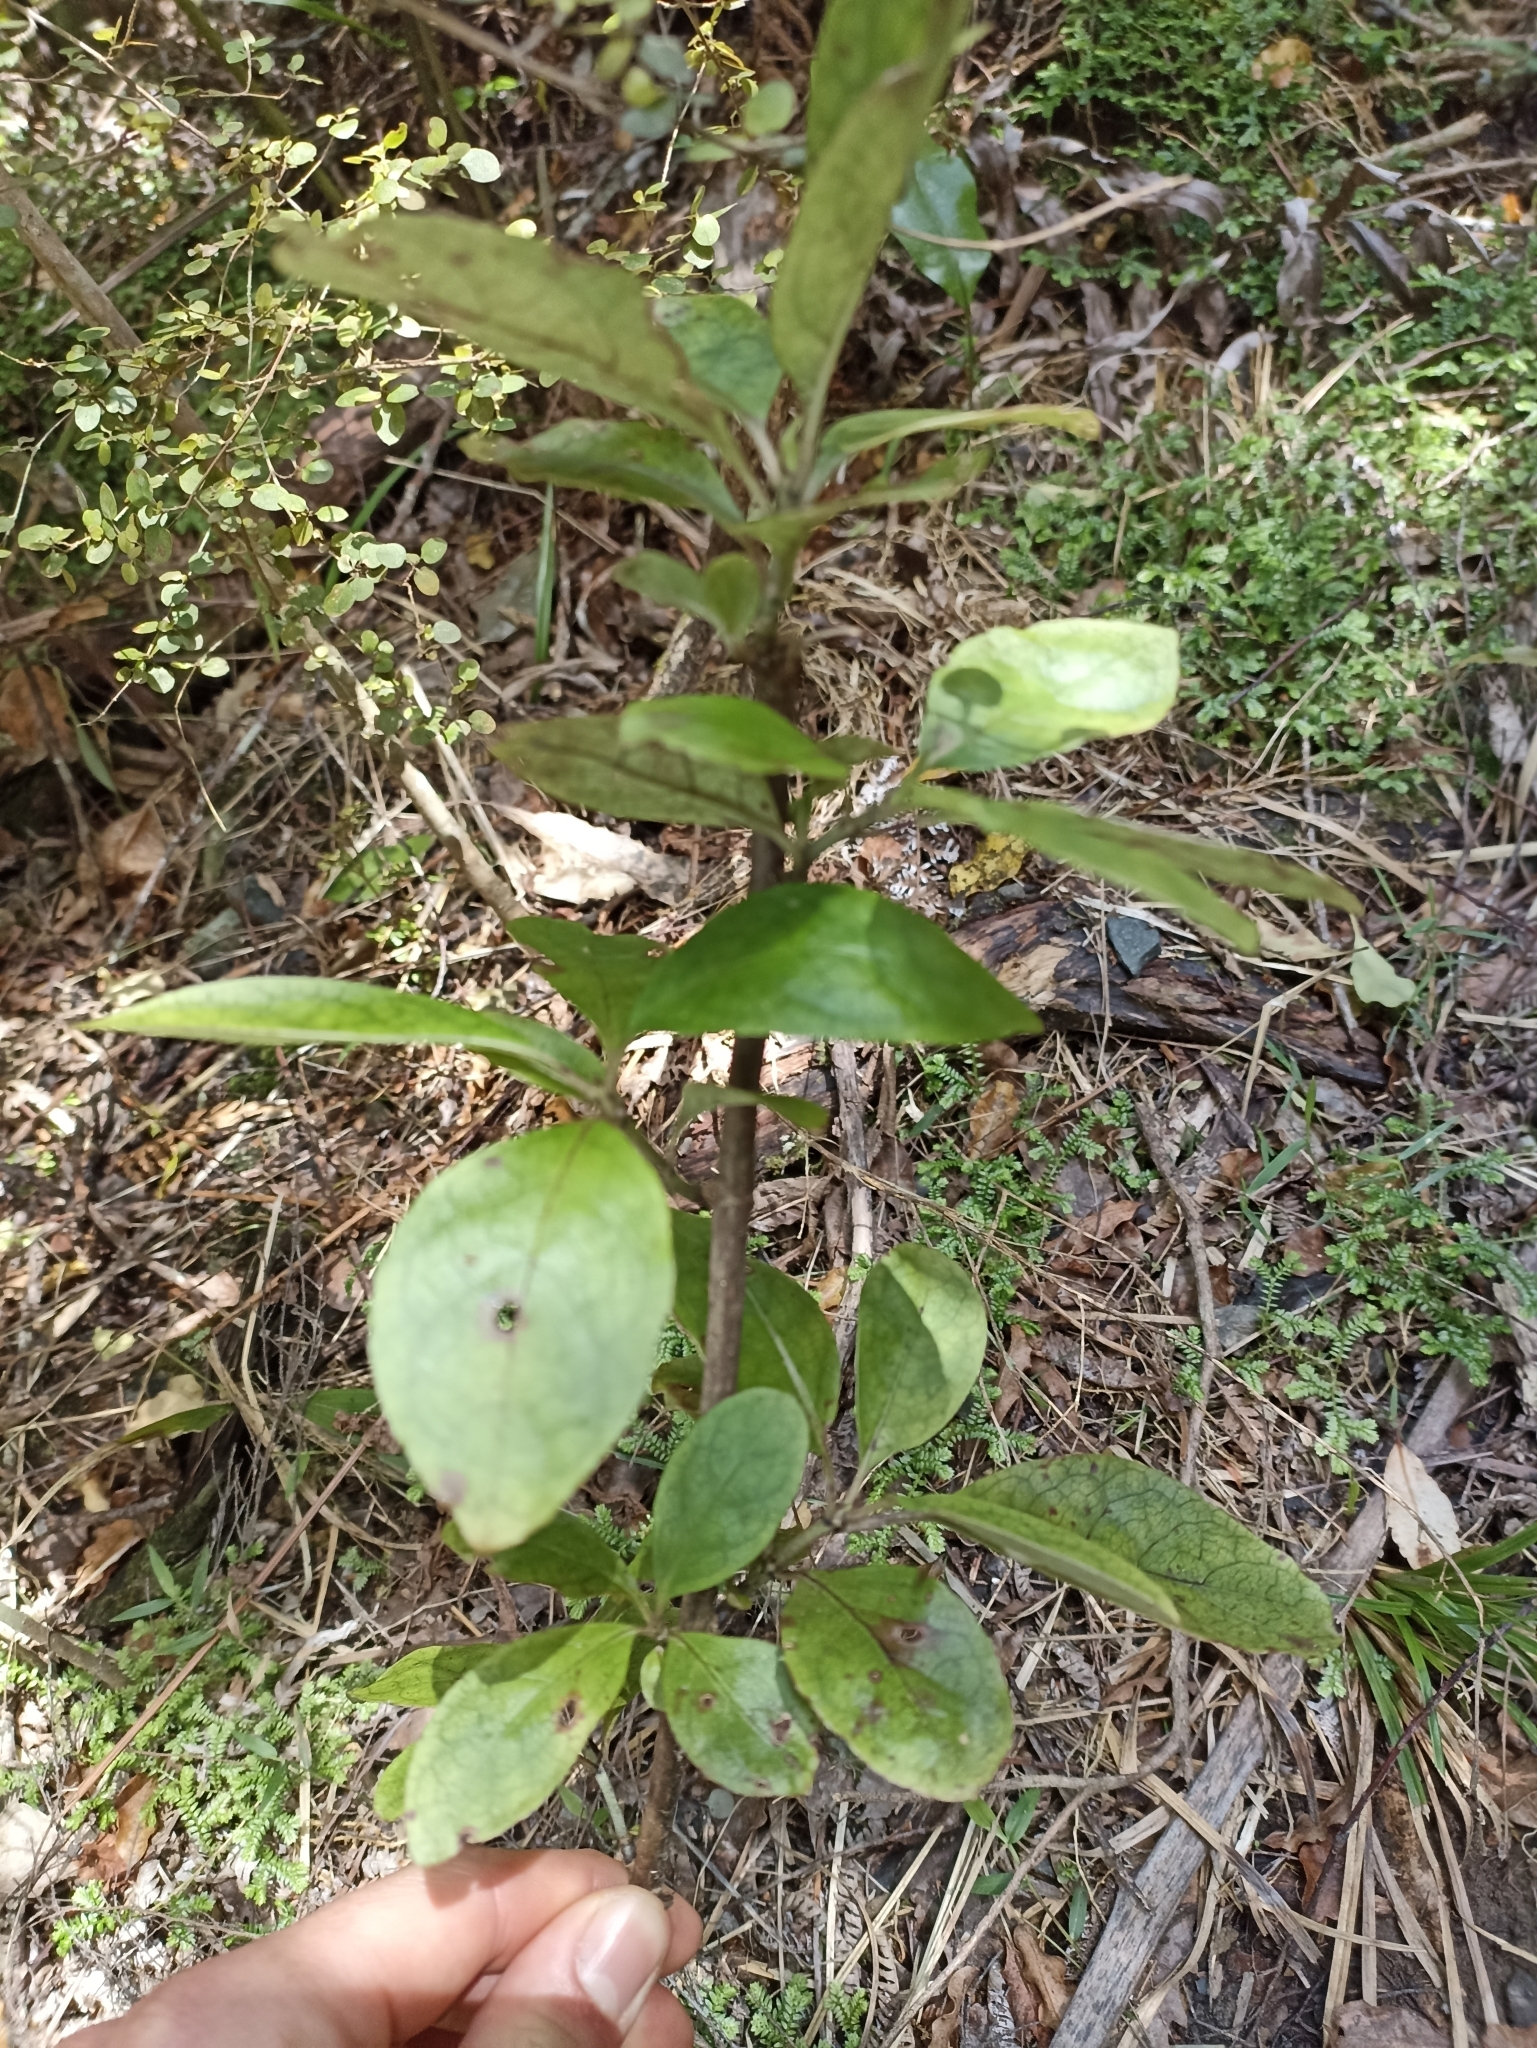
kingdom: Plantae
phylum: Tracheophyta
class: Magnoliopsida
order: Gentianales
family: Rubiaceae
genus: Coprosma
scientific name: Coprosma autumnalis
